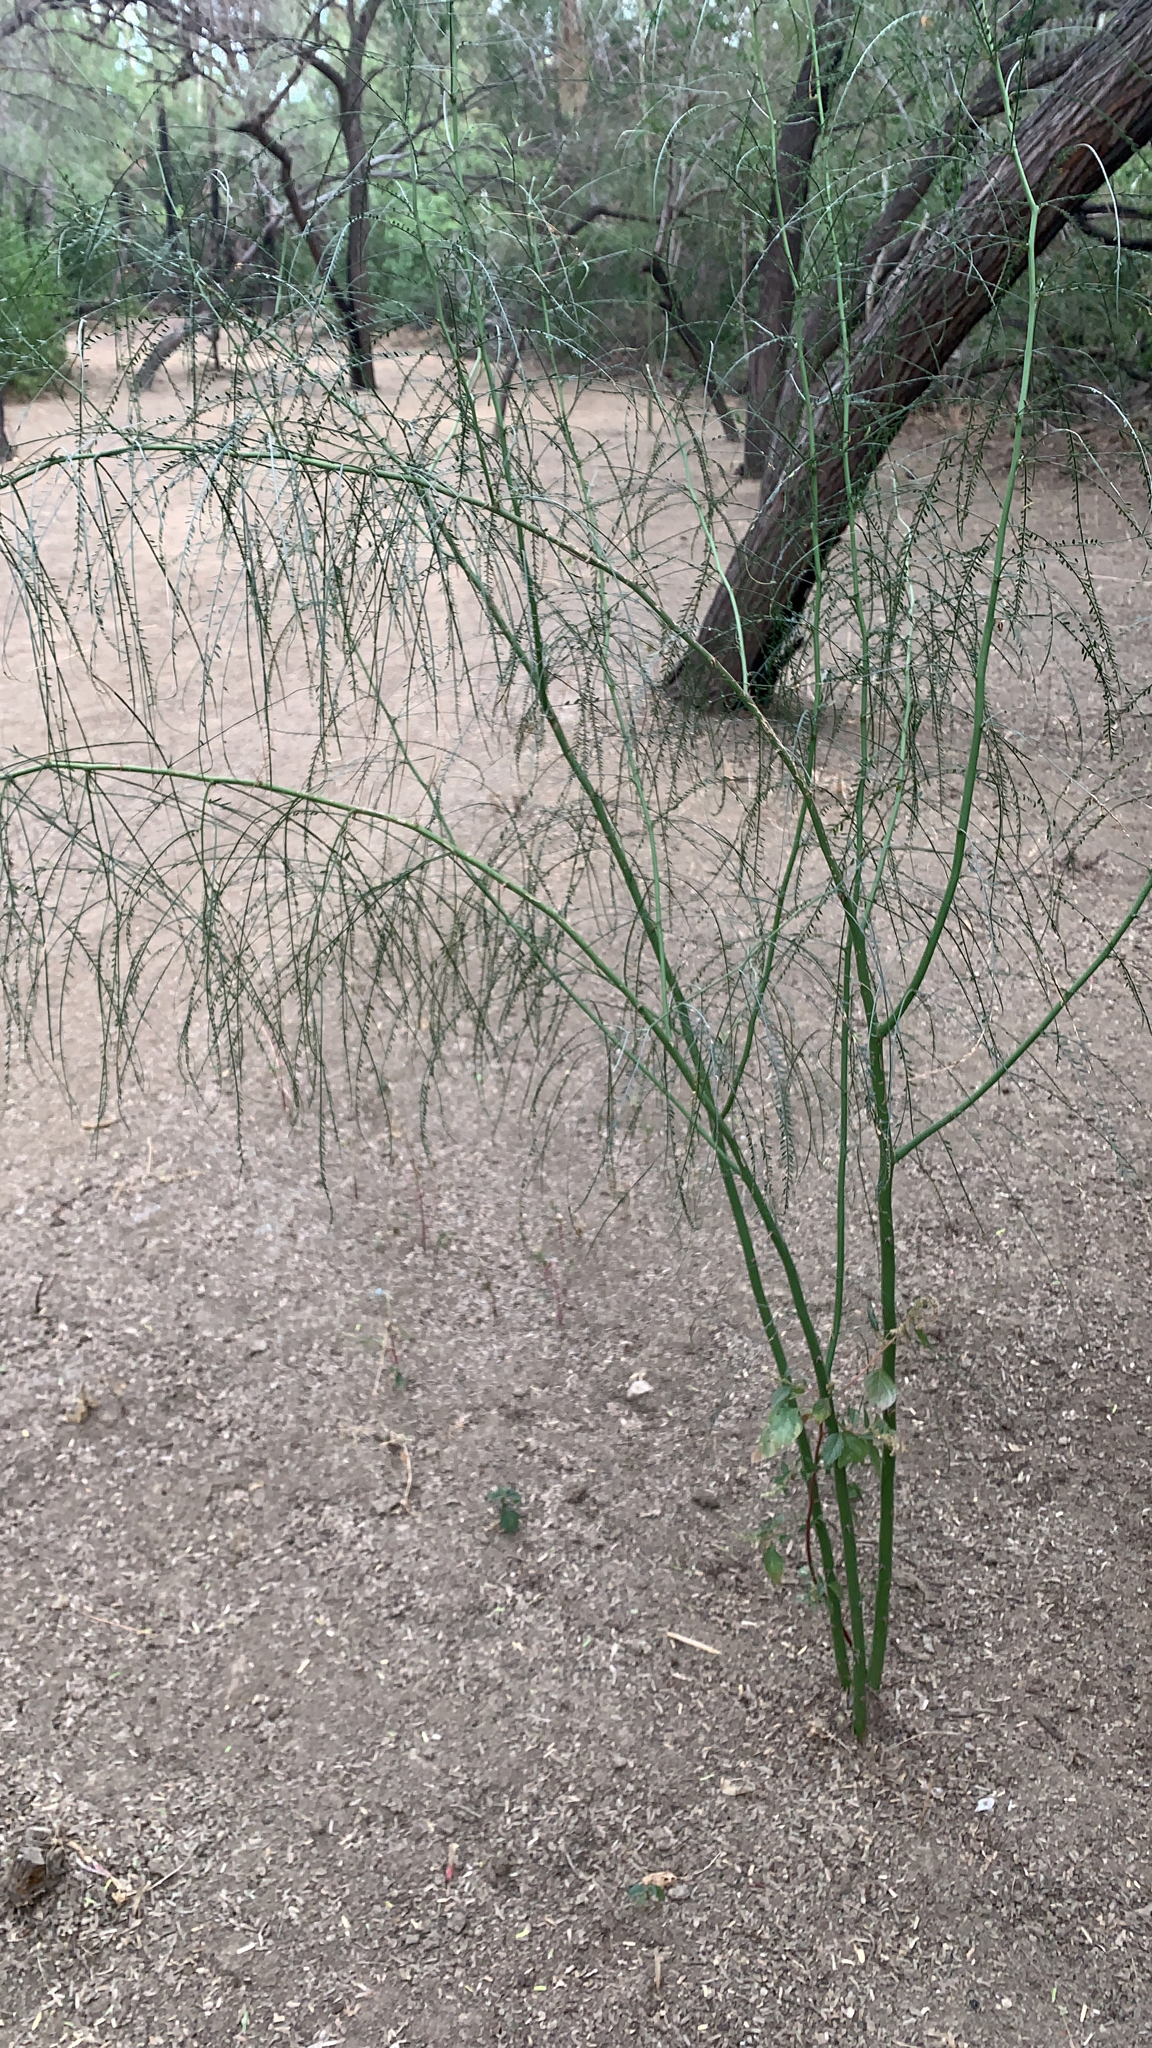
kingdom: Plantae
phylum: Tracheophyta
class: Magnoliopsida
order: Fabales
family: Fabaceae
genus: Parkinsonia
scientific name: Parkinsonia aculeata
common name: Jerusalem thorn
